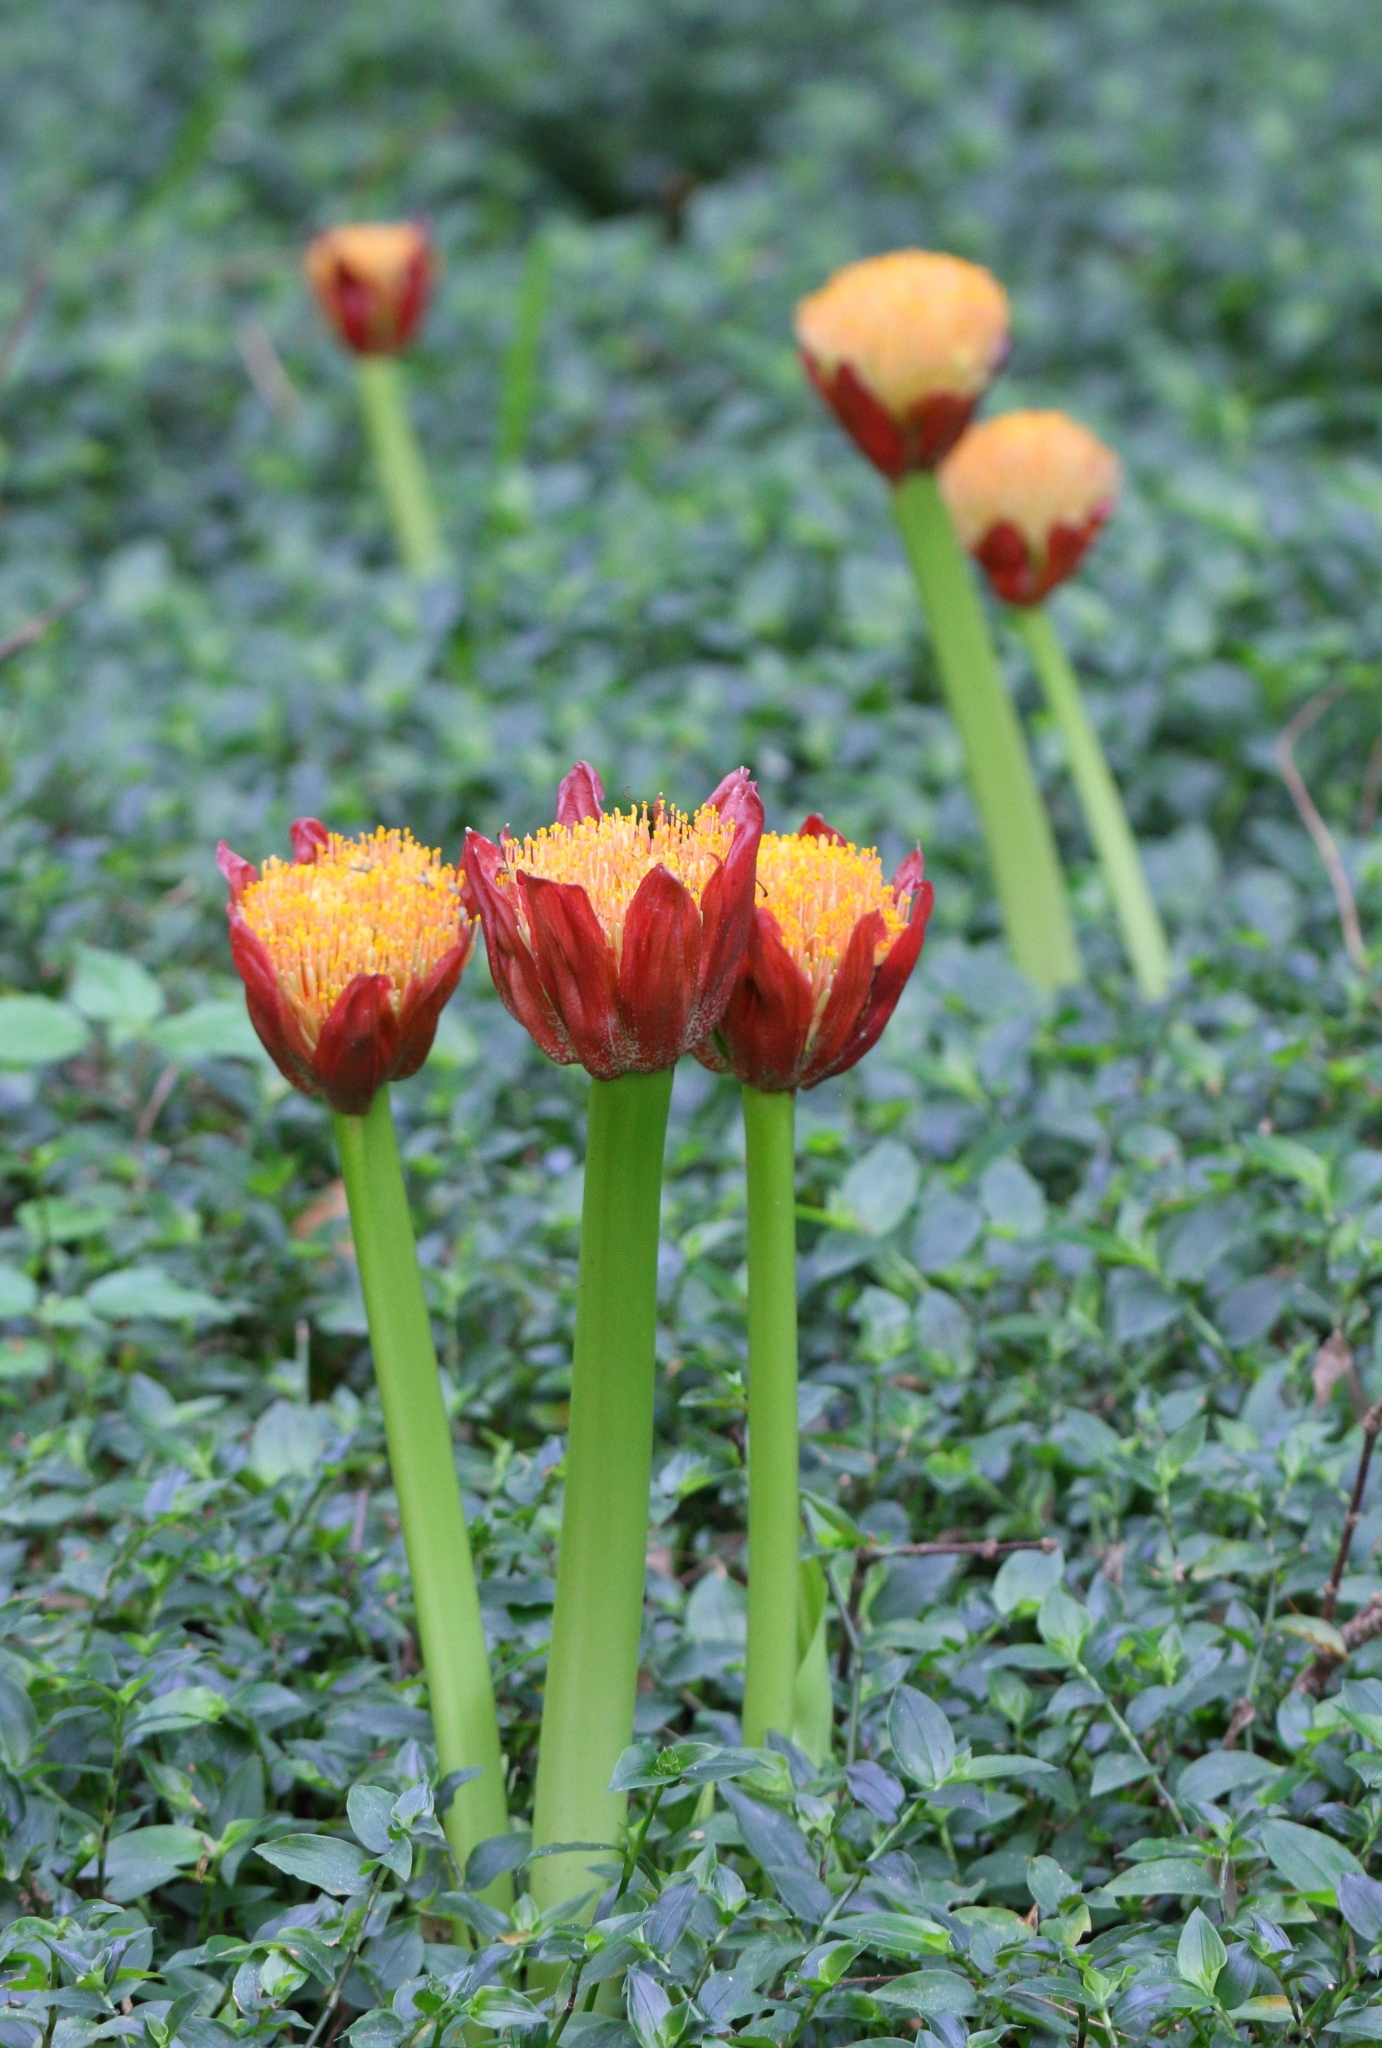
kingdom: Plantae
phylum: Tracheophyta
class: Liliopsida
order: Asparagales
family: Amaryllidaceae
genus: Scadoxus
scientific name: Scadoxus puniceus
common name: Royal-paintbrush
